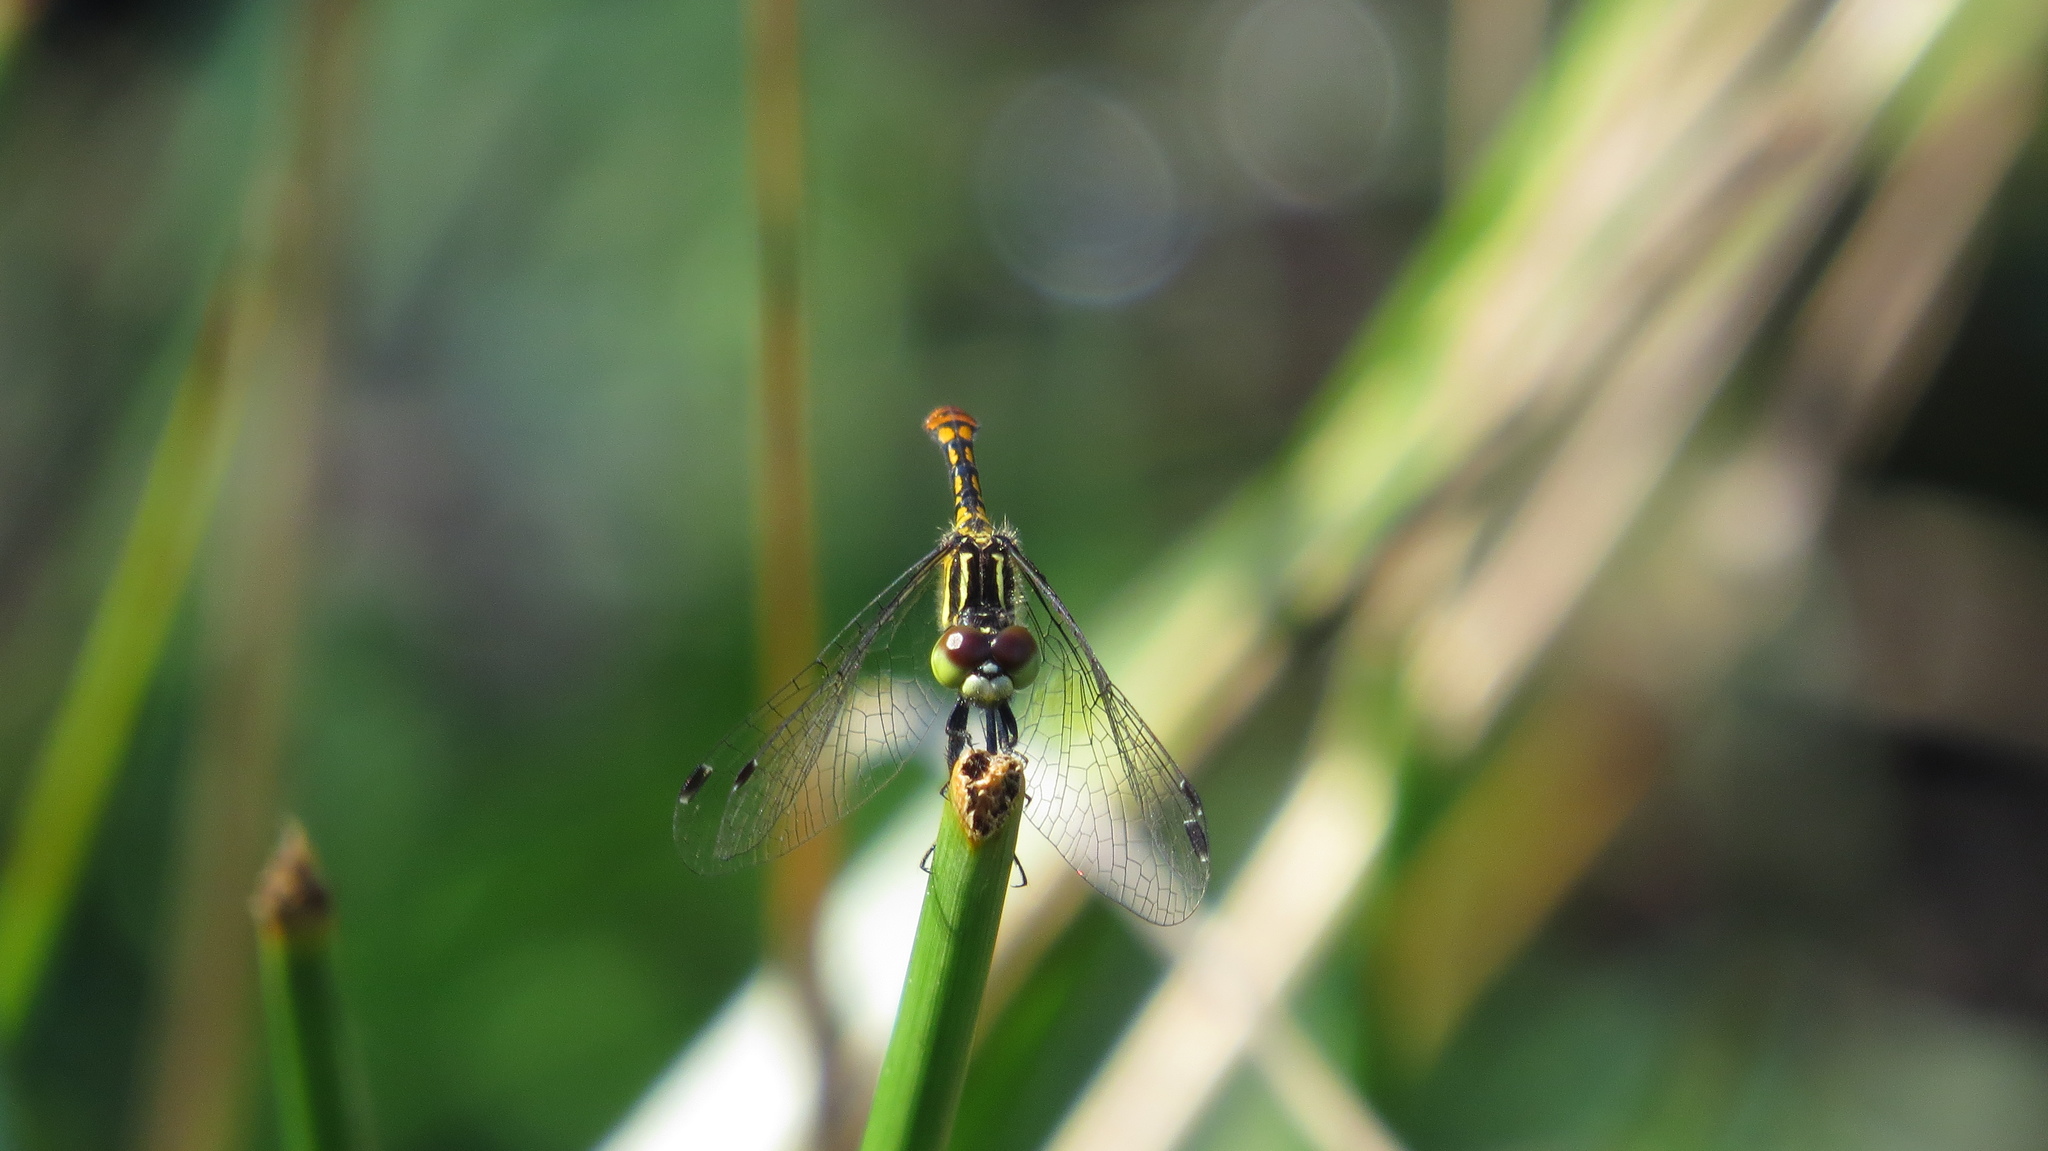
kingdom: Animalia
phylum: Arthropoda
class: Insecta
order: Odonata
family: Libellulidae
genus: Nannophya
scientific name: Nannophya australis
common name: Australian pygmyfly
